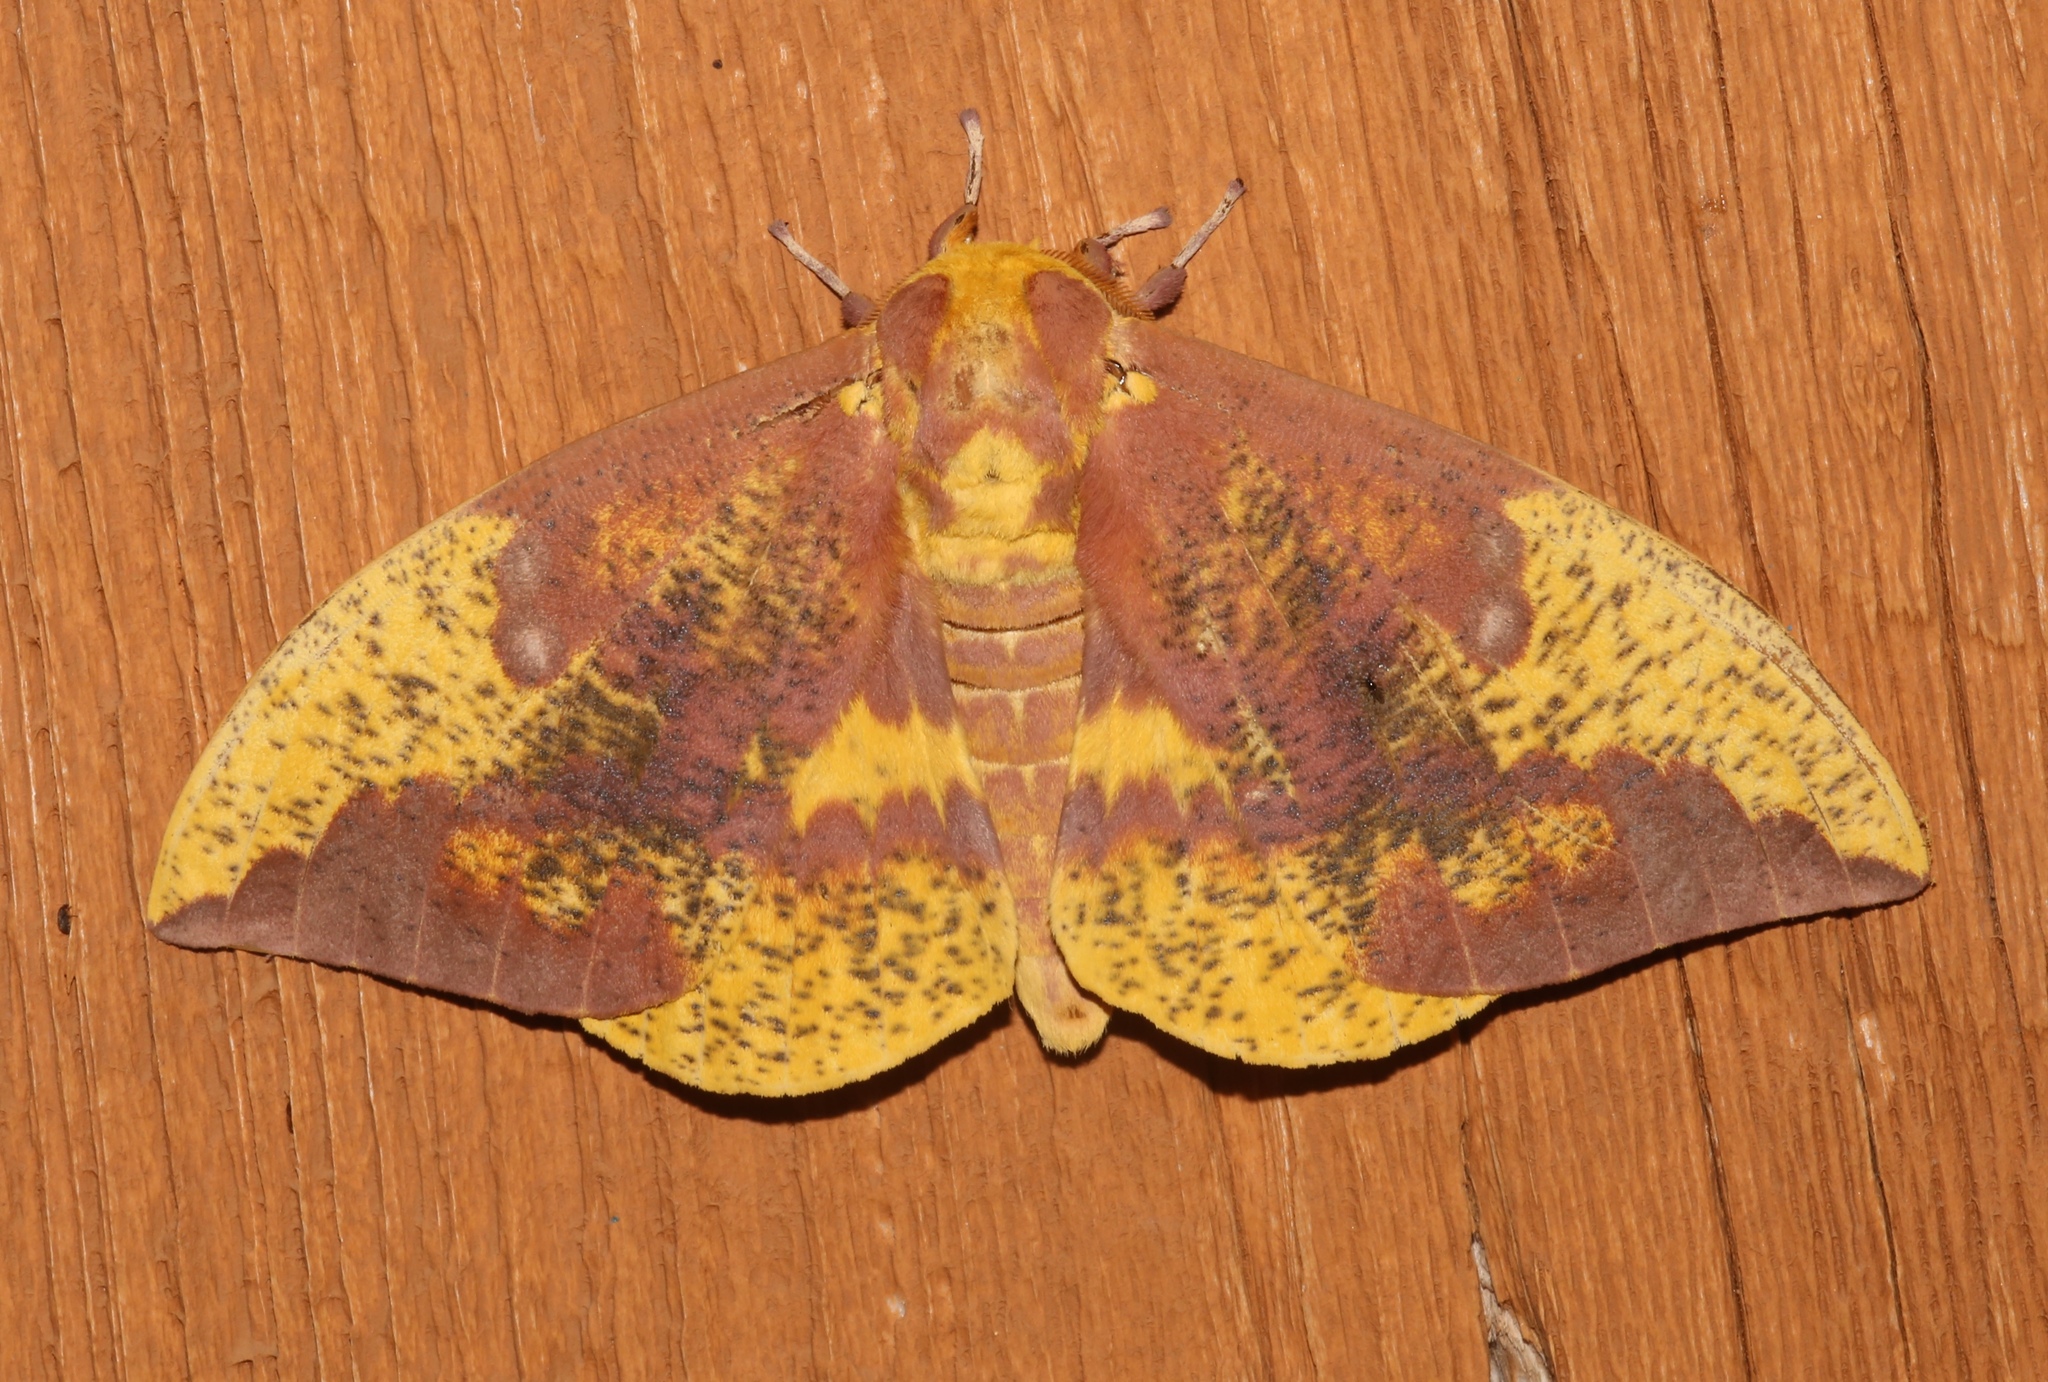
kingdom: Animalia
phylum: Arthropoda
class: Insecta
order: Lepidoptera
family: Saturniidae
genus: Eacles
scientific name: Eacles imperialis
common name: Imperial moth
